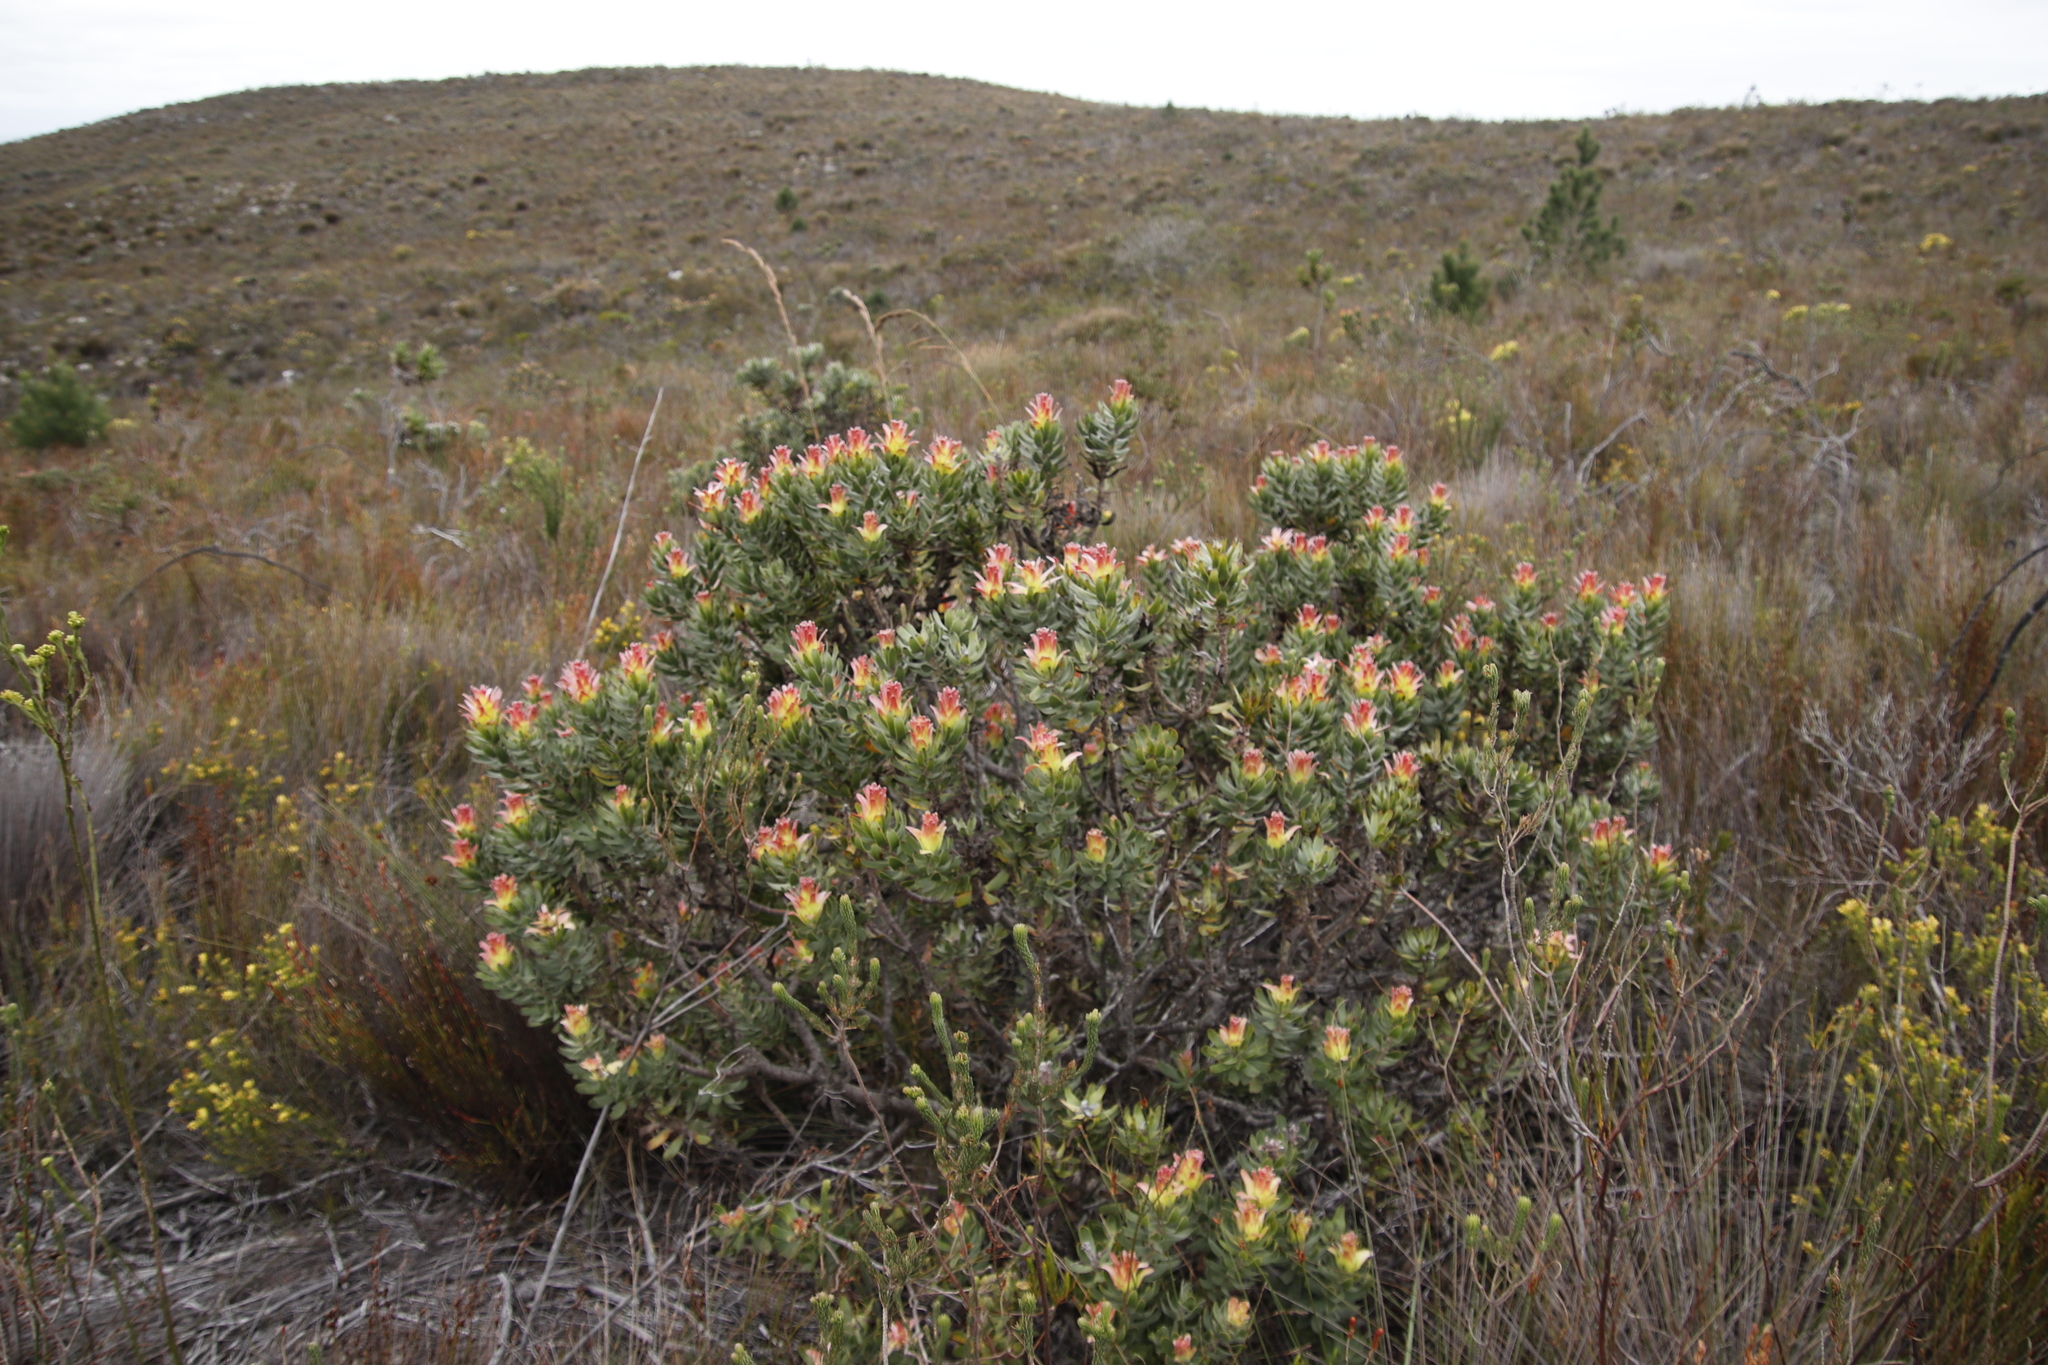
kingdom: Plantae
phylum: Tracheophyta
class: Magnoliopsida
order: Proteales
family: Proteaceae
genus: Mimetes
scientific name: Mimetes cucullatus
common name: Common pagoda
